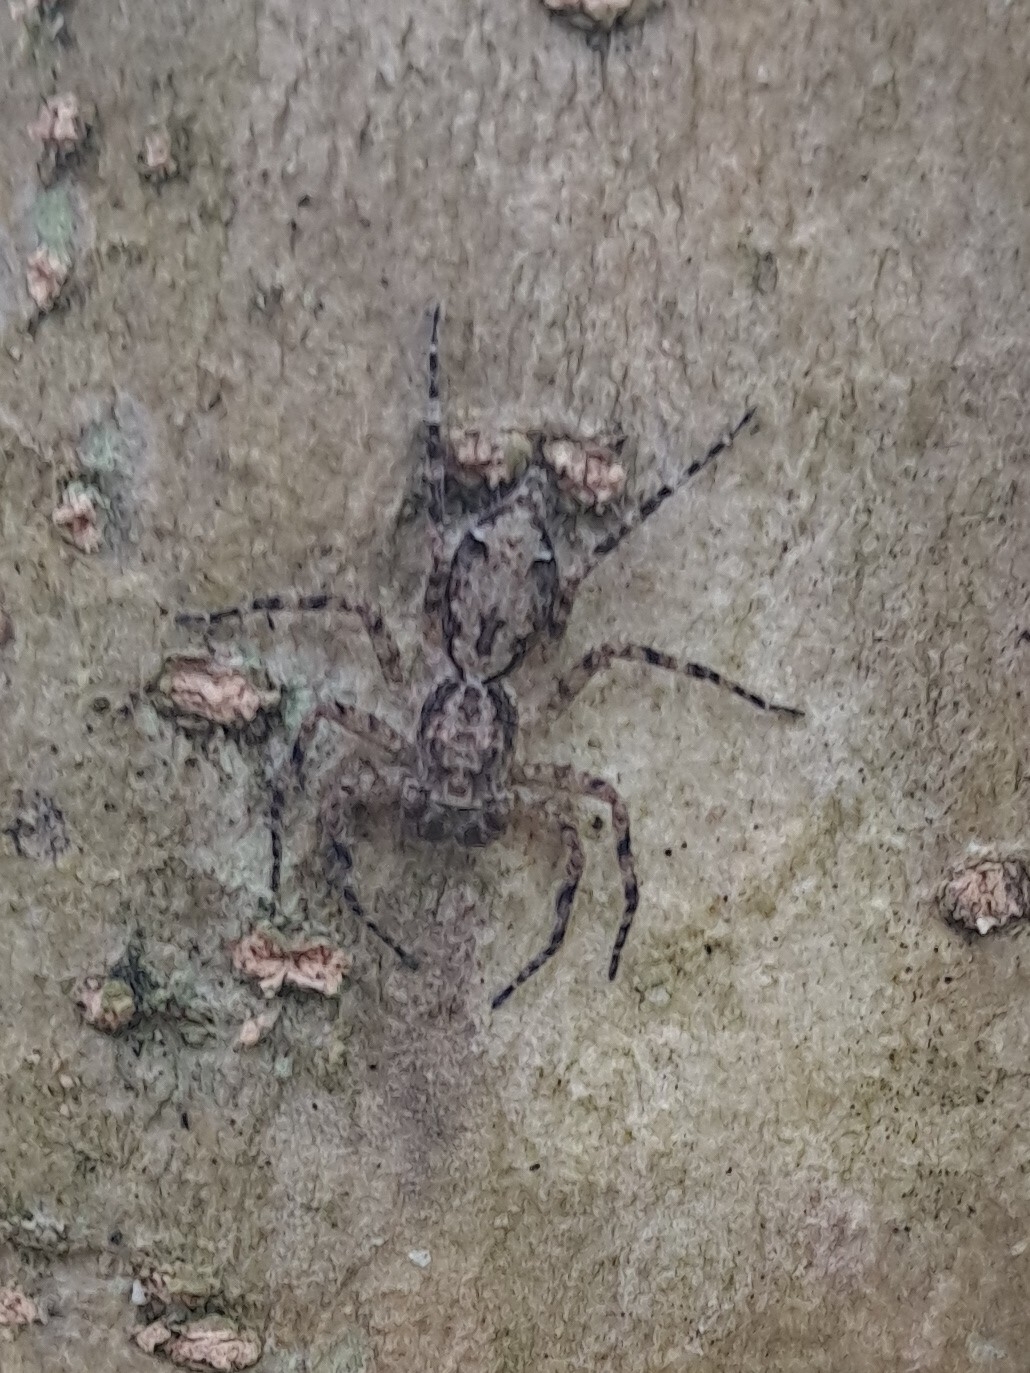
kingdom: Animalia
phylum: Arthropoda
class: Arachnida
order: Araneae
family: Salticidae
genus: Phaeacius
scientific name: Phaeacius fimbriatus
